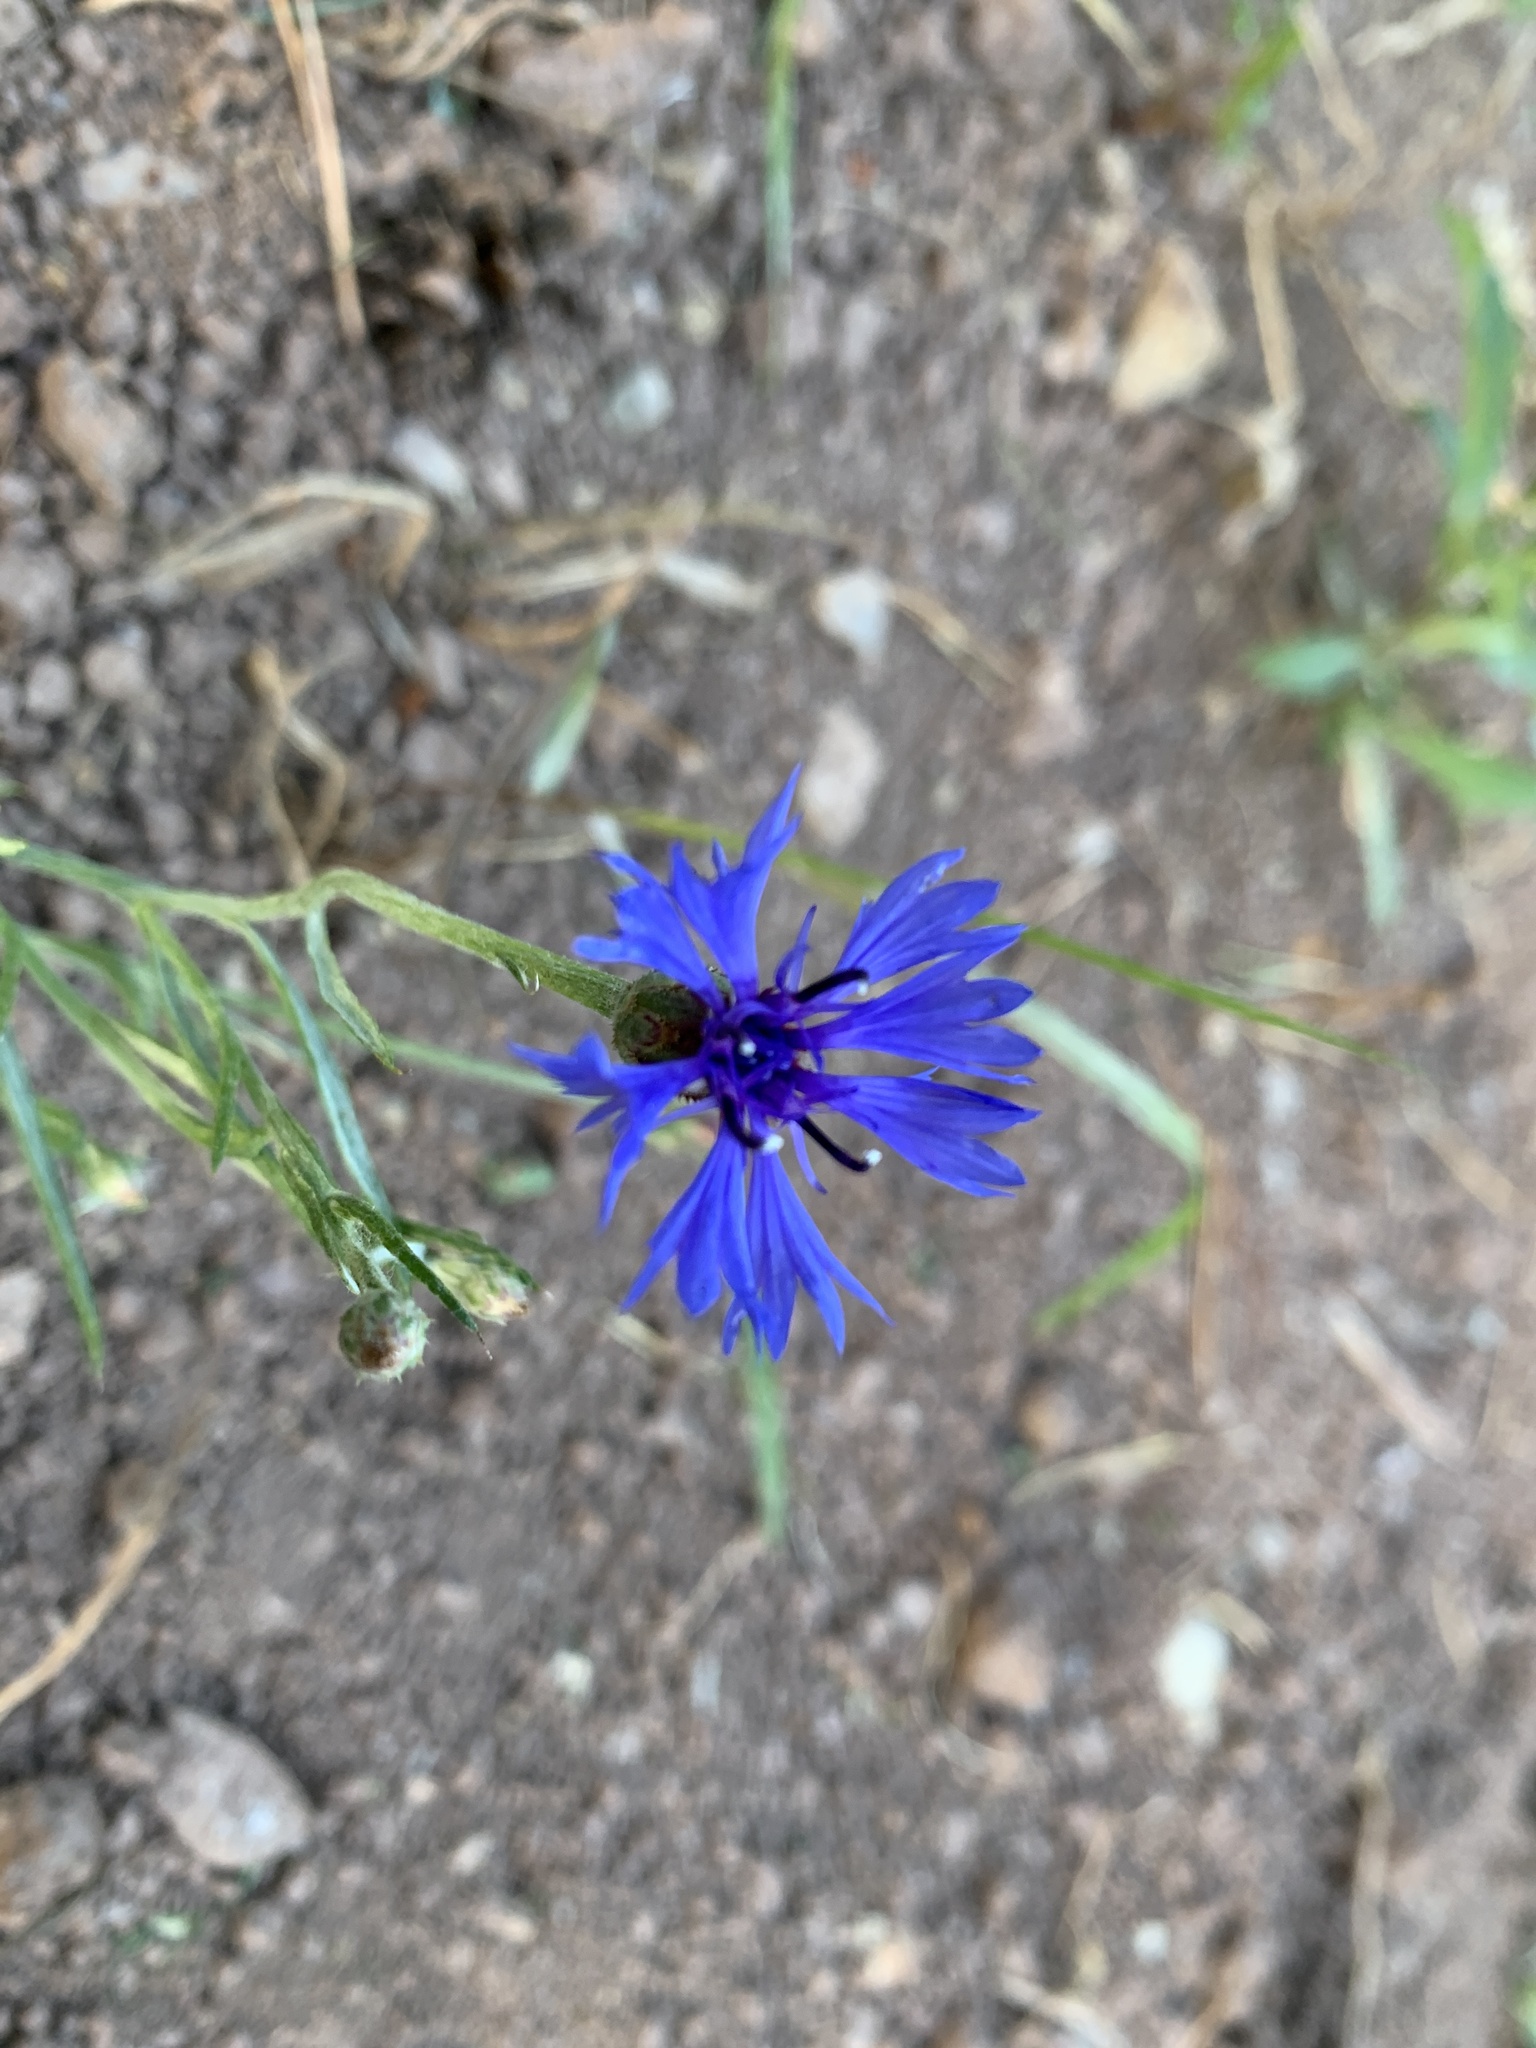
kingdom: Plantae
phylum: Tracheophyta
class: Magnoliopsida
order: Asterales
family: Asteraceae
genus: Centaurea
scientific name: Centaurea cyanus
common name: Cornflower
